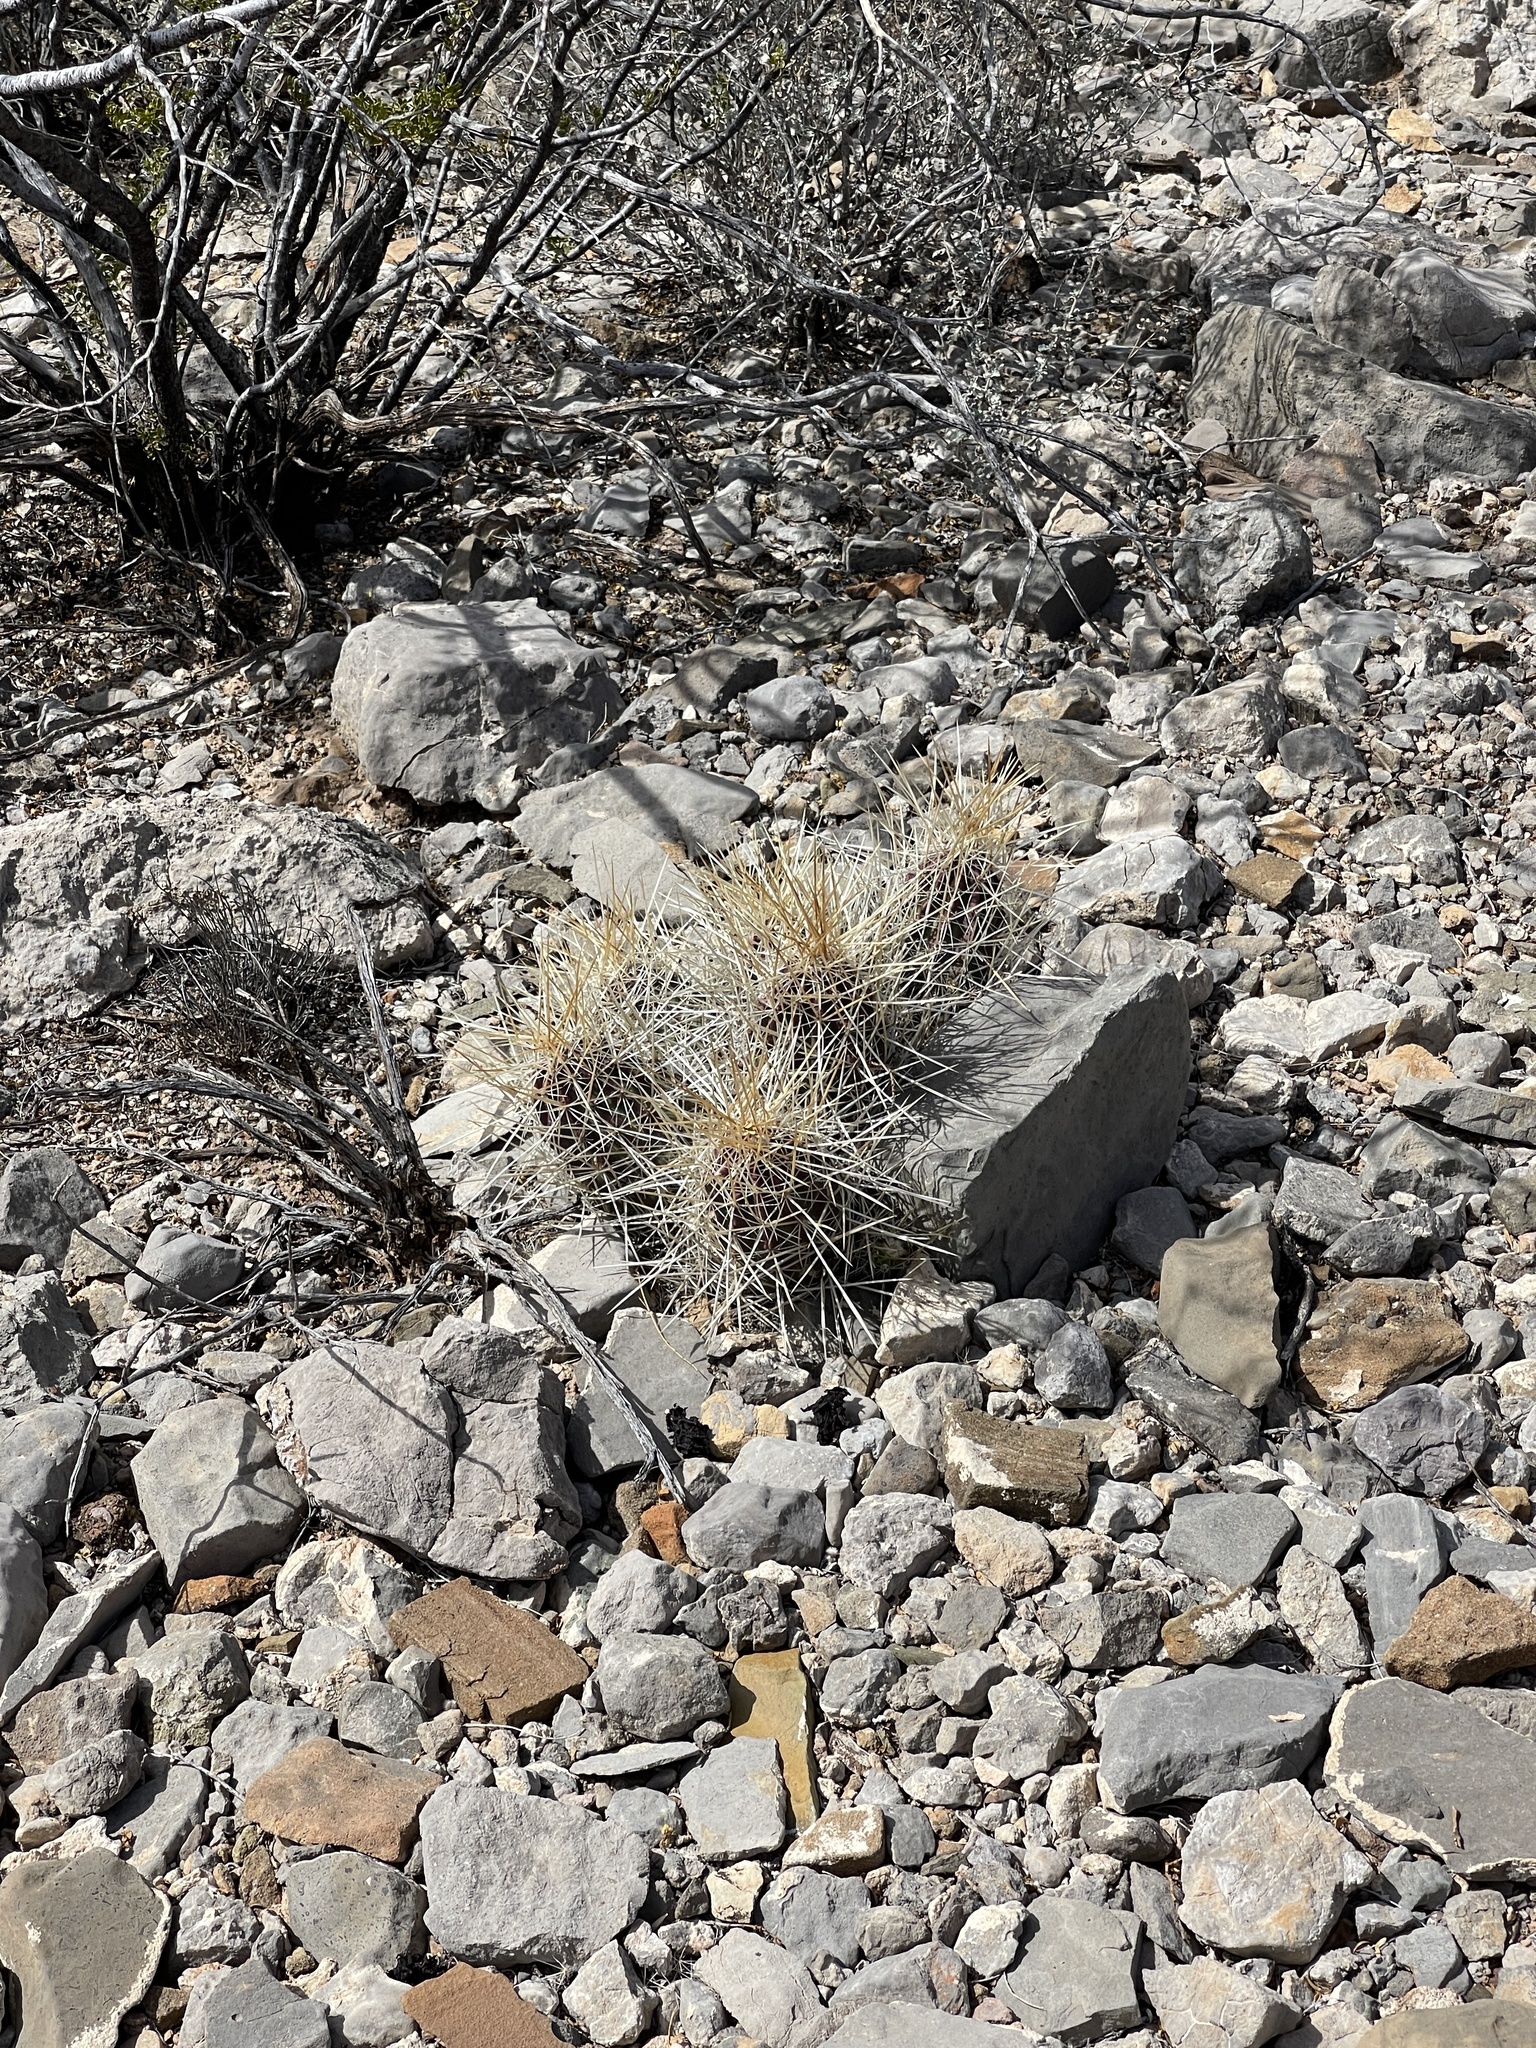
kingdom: Plantae
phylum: Tracheophyta
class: Magnoliopsida
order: Caryophyllales
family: Cactaceae
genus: Echinocereus
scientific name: Echinocereus stramineus
